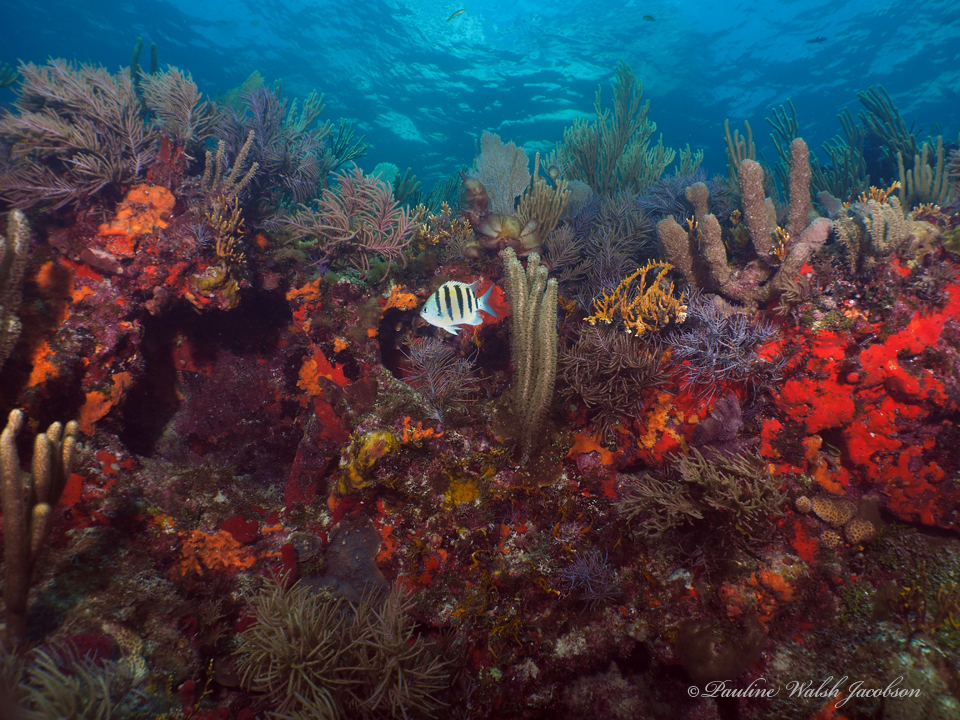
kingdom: Animalia
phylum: Chordata
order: Perciformes
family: Pomacentridae
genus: Abudefduf
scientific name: Abudefduf saxatilis
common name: Sergeant major
